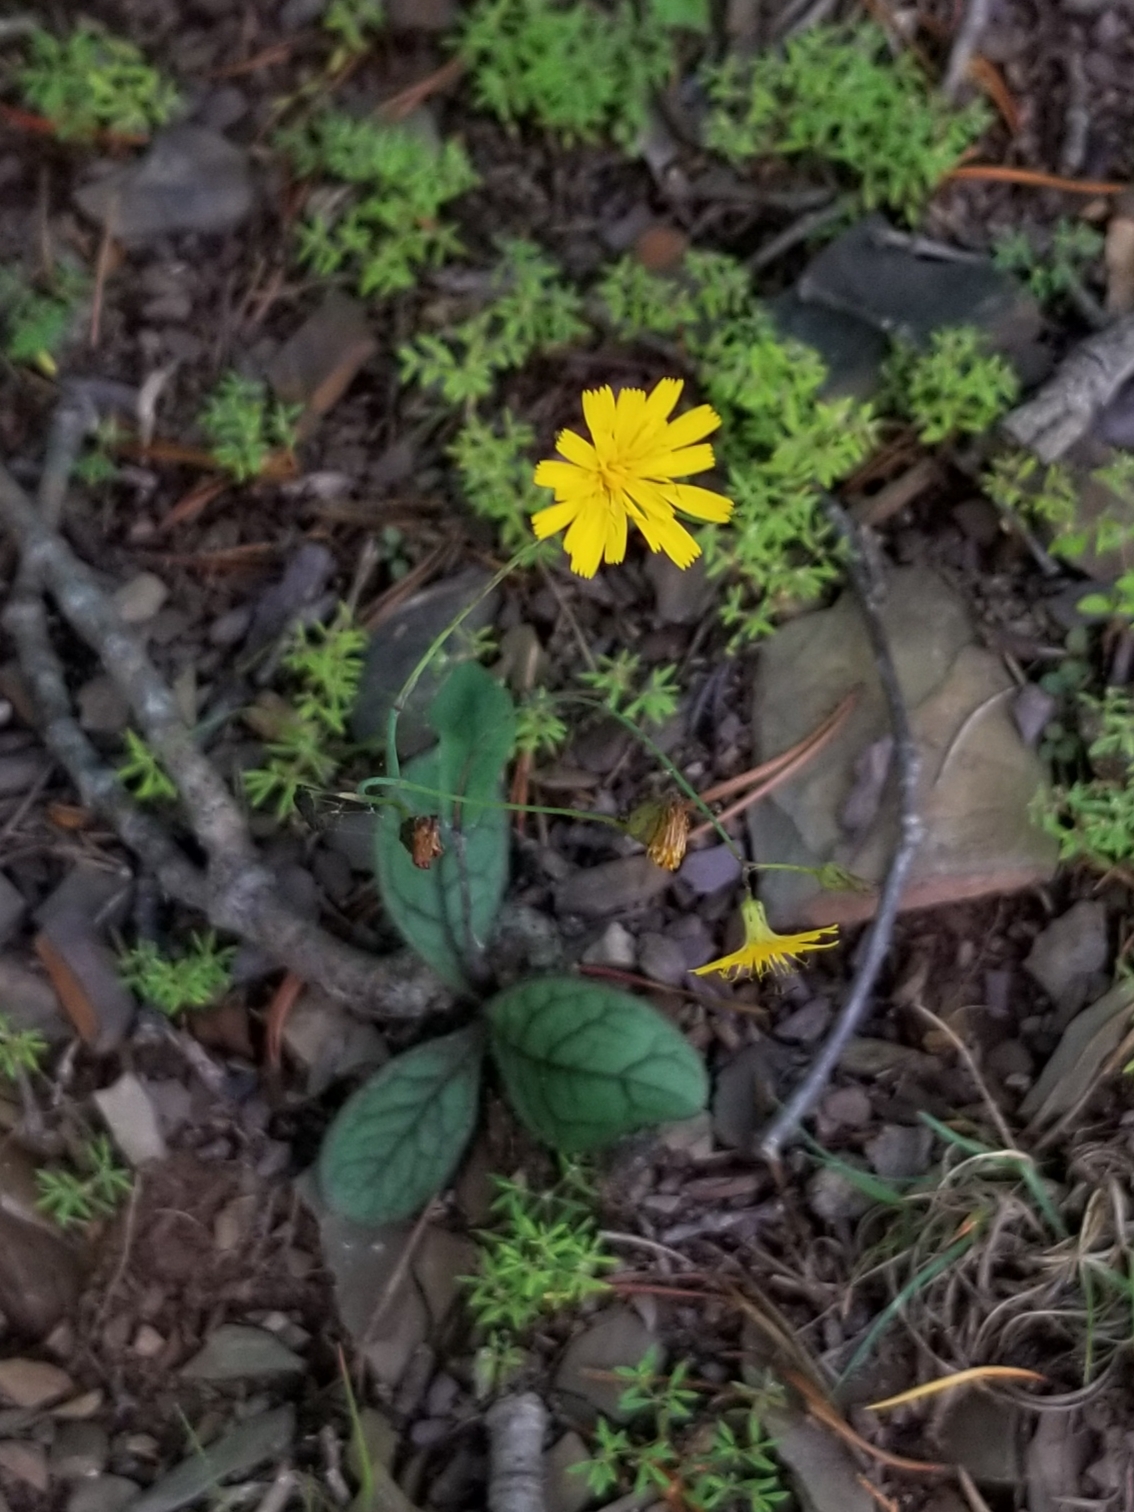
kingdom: Plantae
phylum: Tracheophyta
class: Magnoliopsida
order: Asterales
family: Asteraceae
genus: Hieracium
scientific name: Hieracium venosum
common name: Rattlesnake hawkweed
